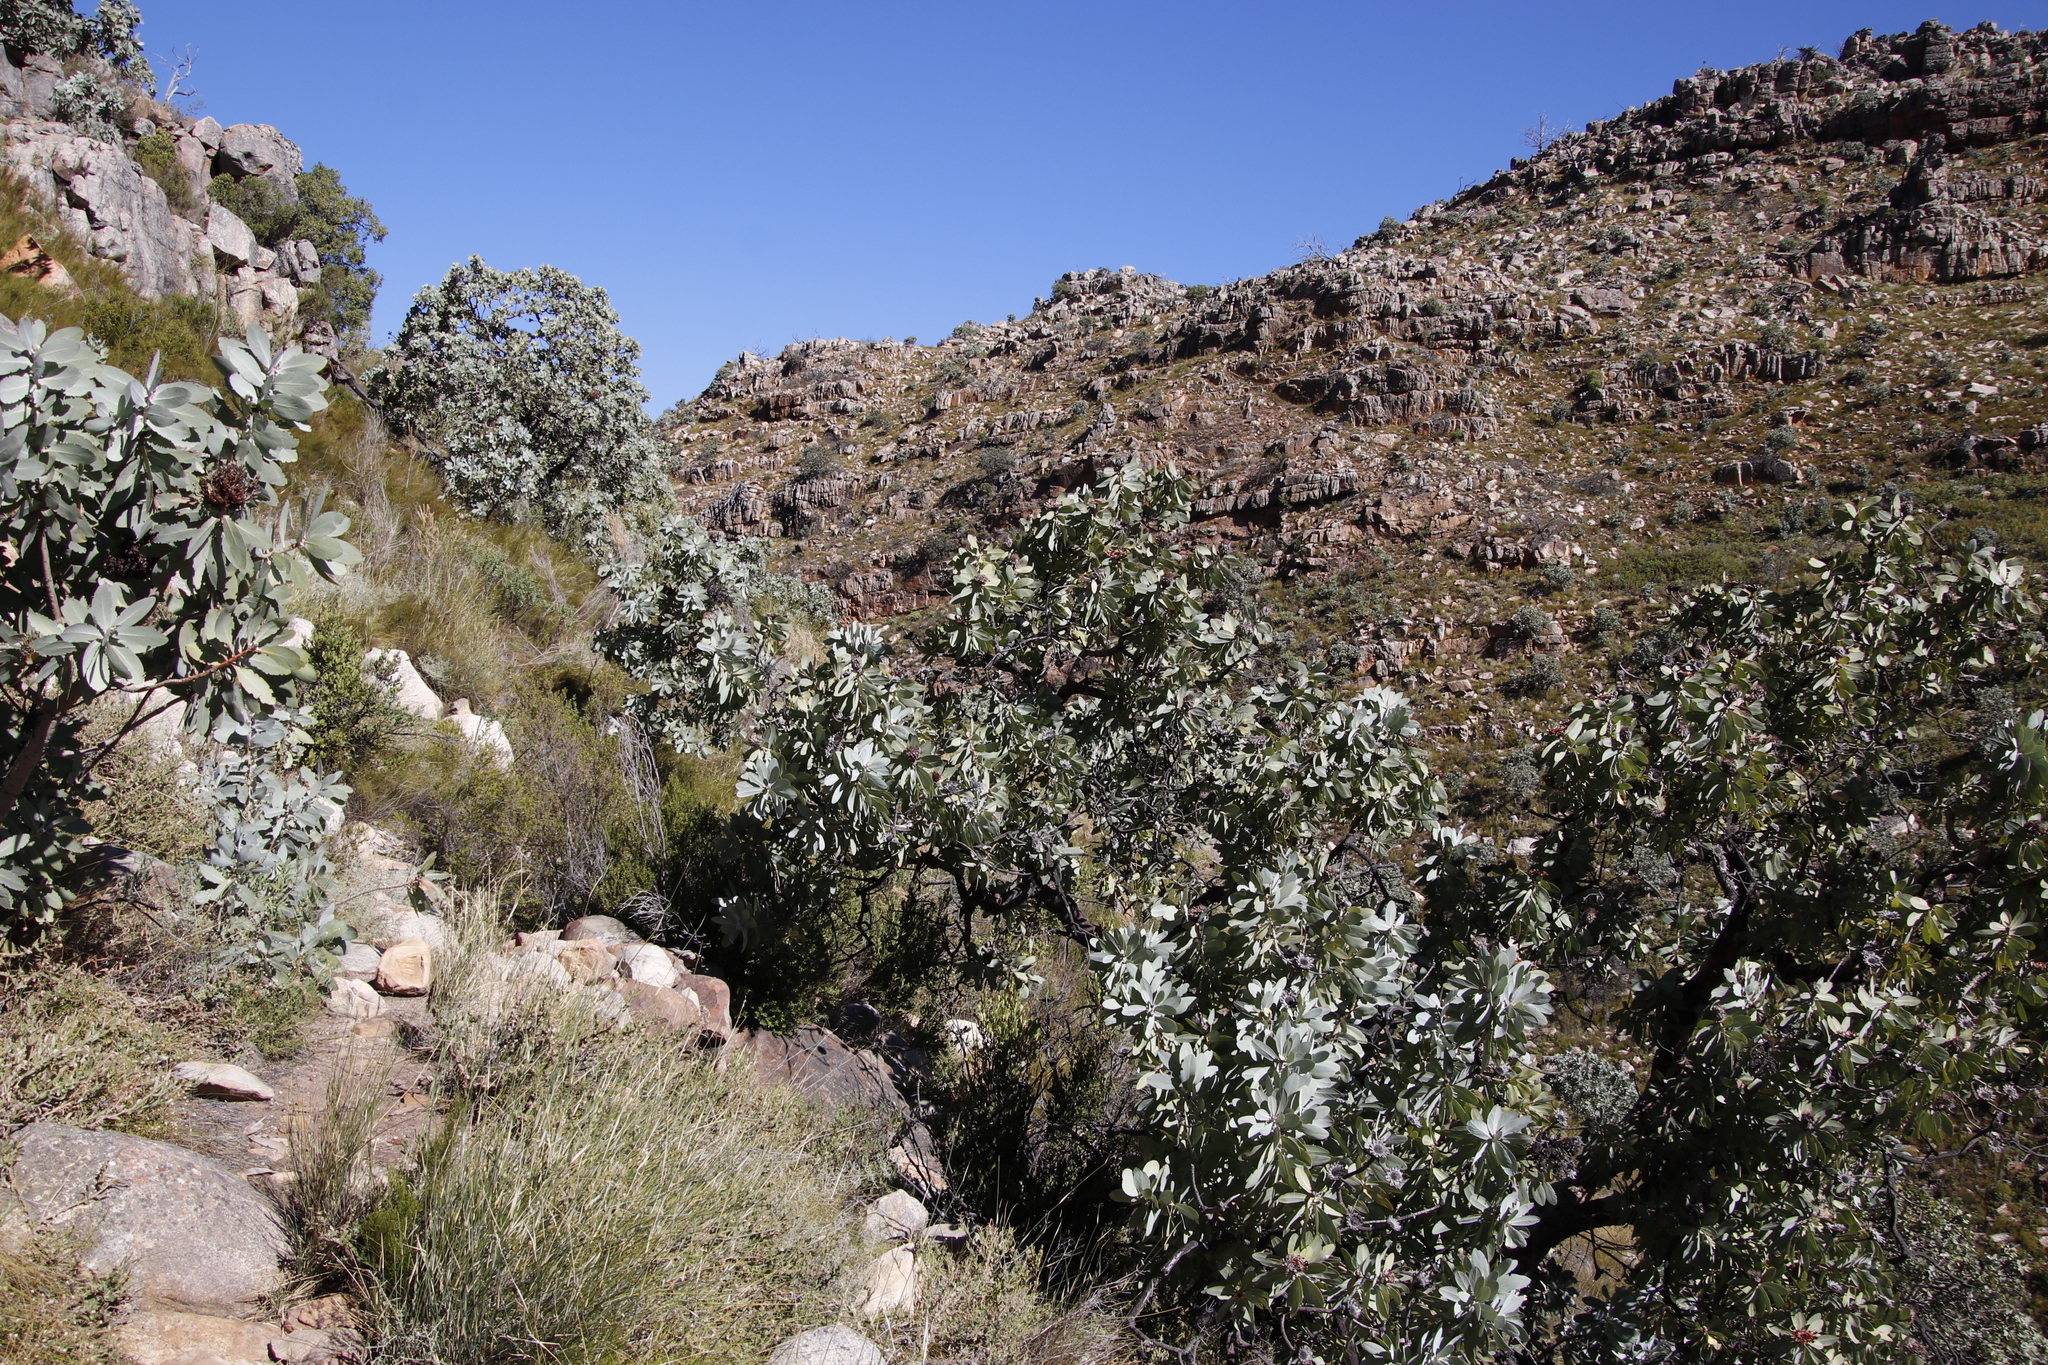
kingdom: Plantae
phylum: Tracheophyta
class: Magnoliopsida
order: Proteales
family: Proteaceae
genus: Protea
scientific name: Protea nitida
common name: Tree protea
